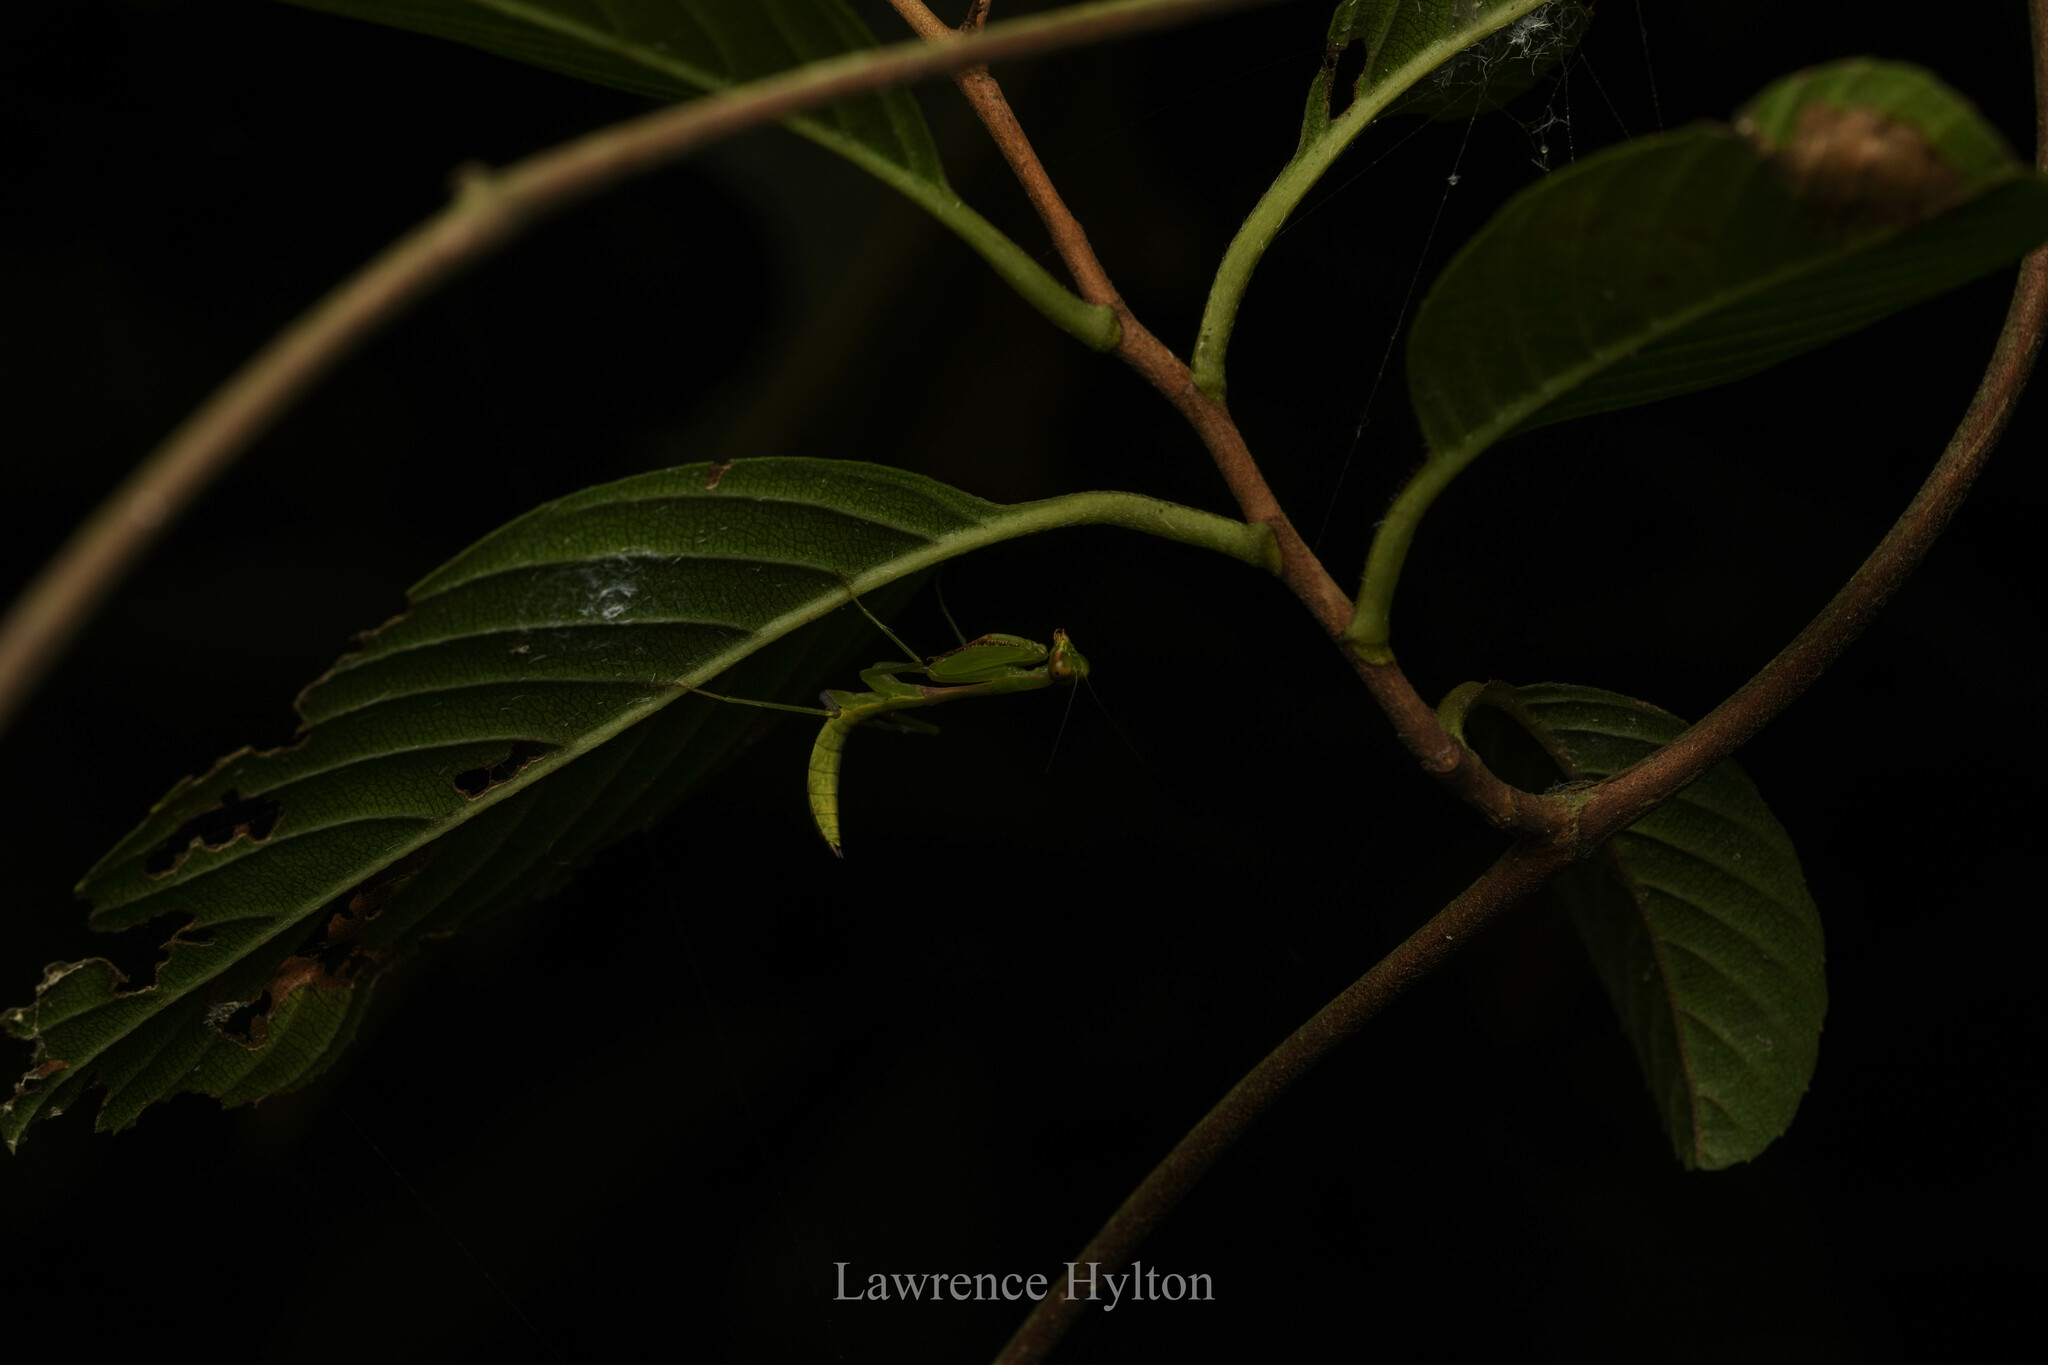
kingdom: Animalia
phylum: Arthropoda
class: Insecta
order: Mantodea
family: Mantidae
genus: Titanodula
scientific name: Titanodula formosana
